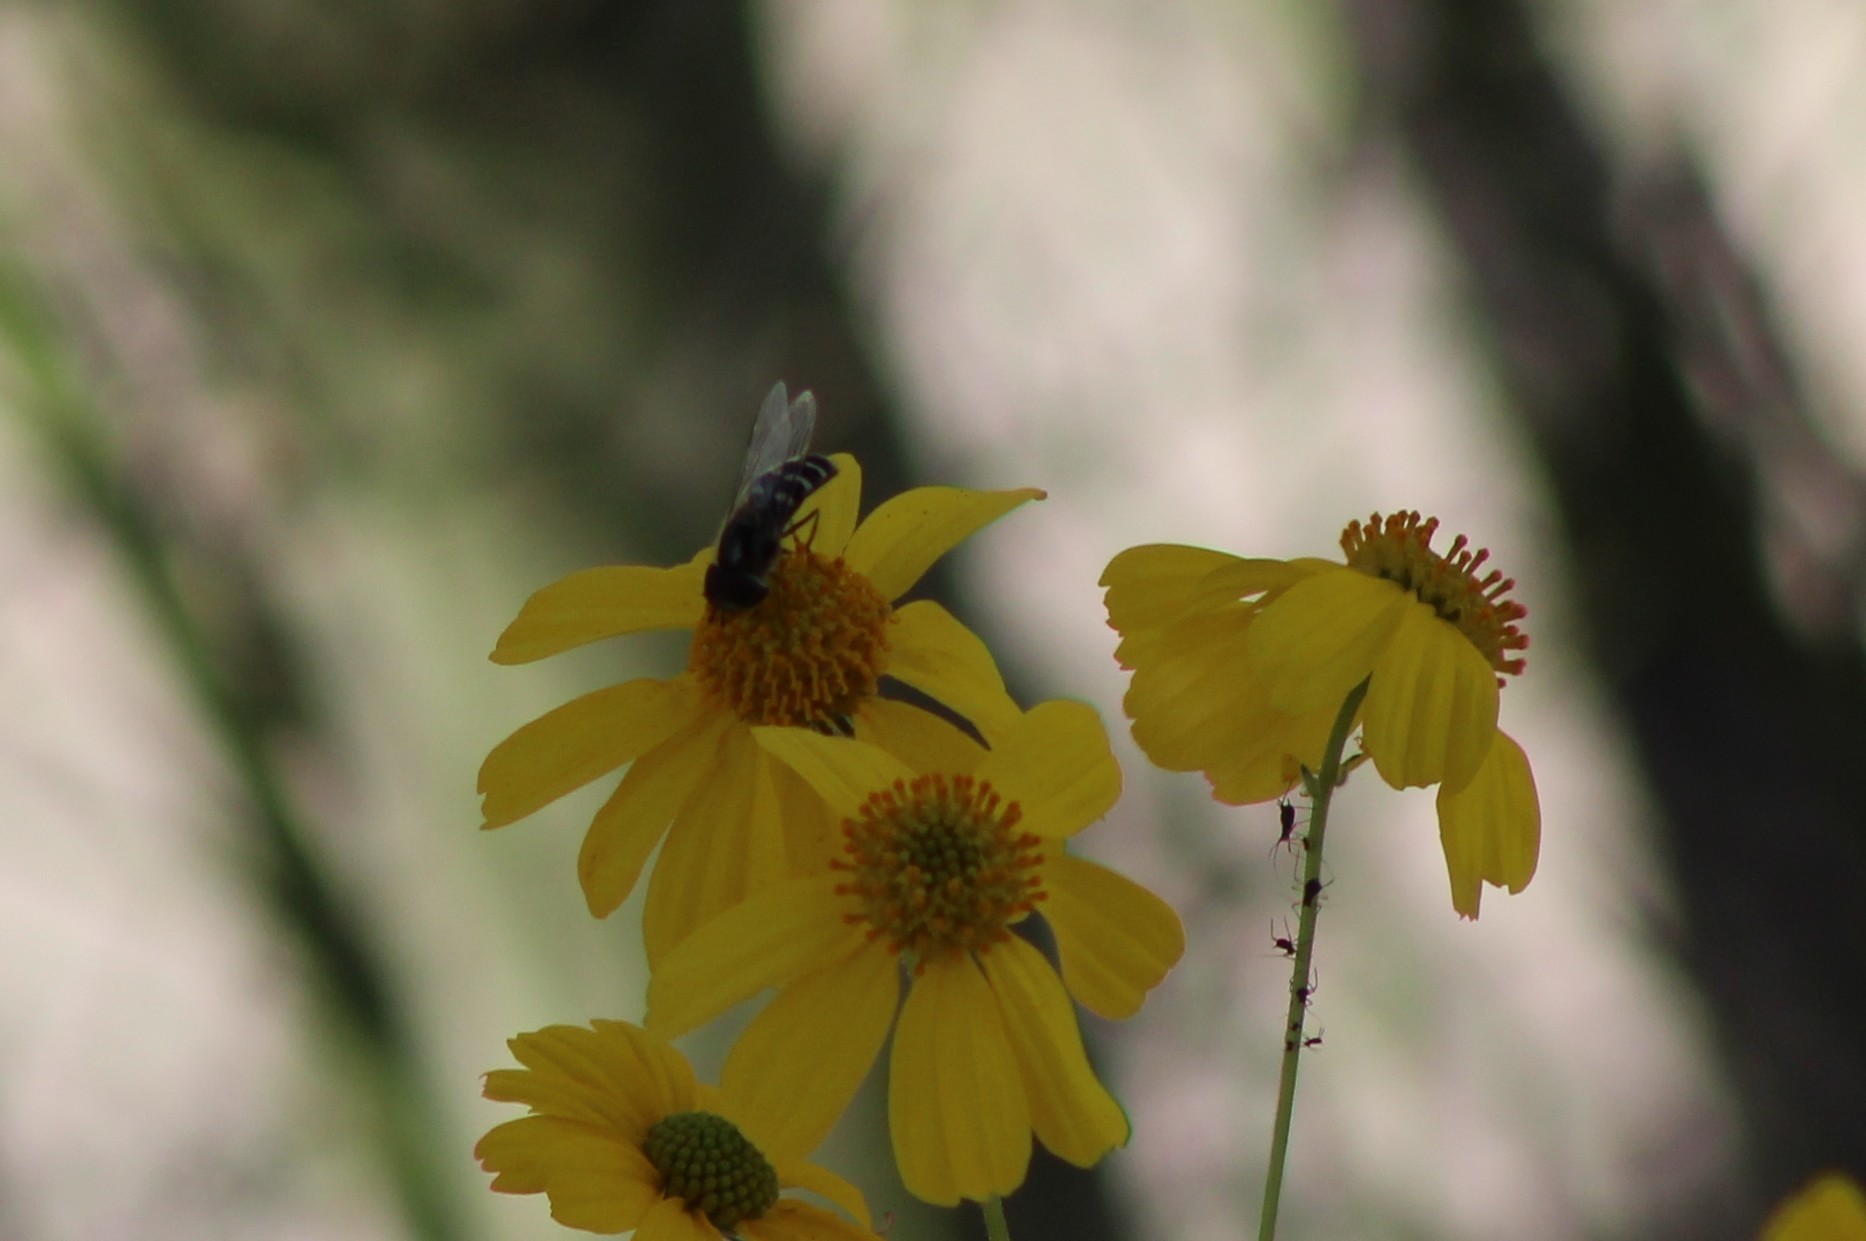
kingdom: Plantae
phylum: Tracheophyta
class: Magnoliopsida
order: Asterales
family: Asteraceae
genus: Encelia
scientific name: Encelia farinosa
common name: Brittlebush
